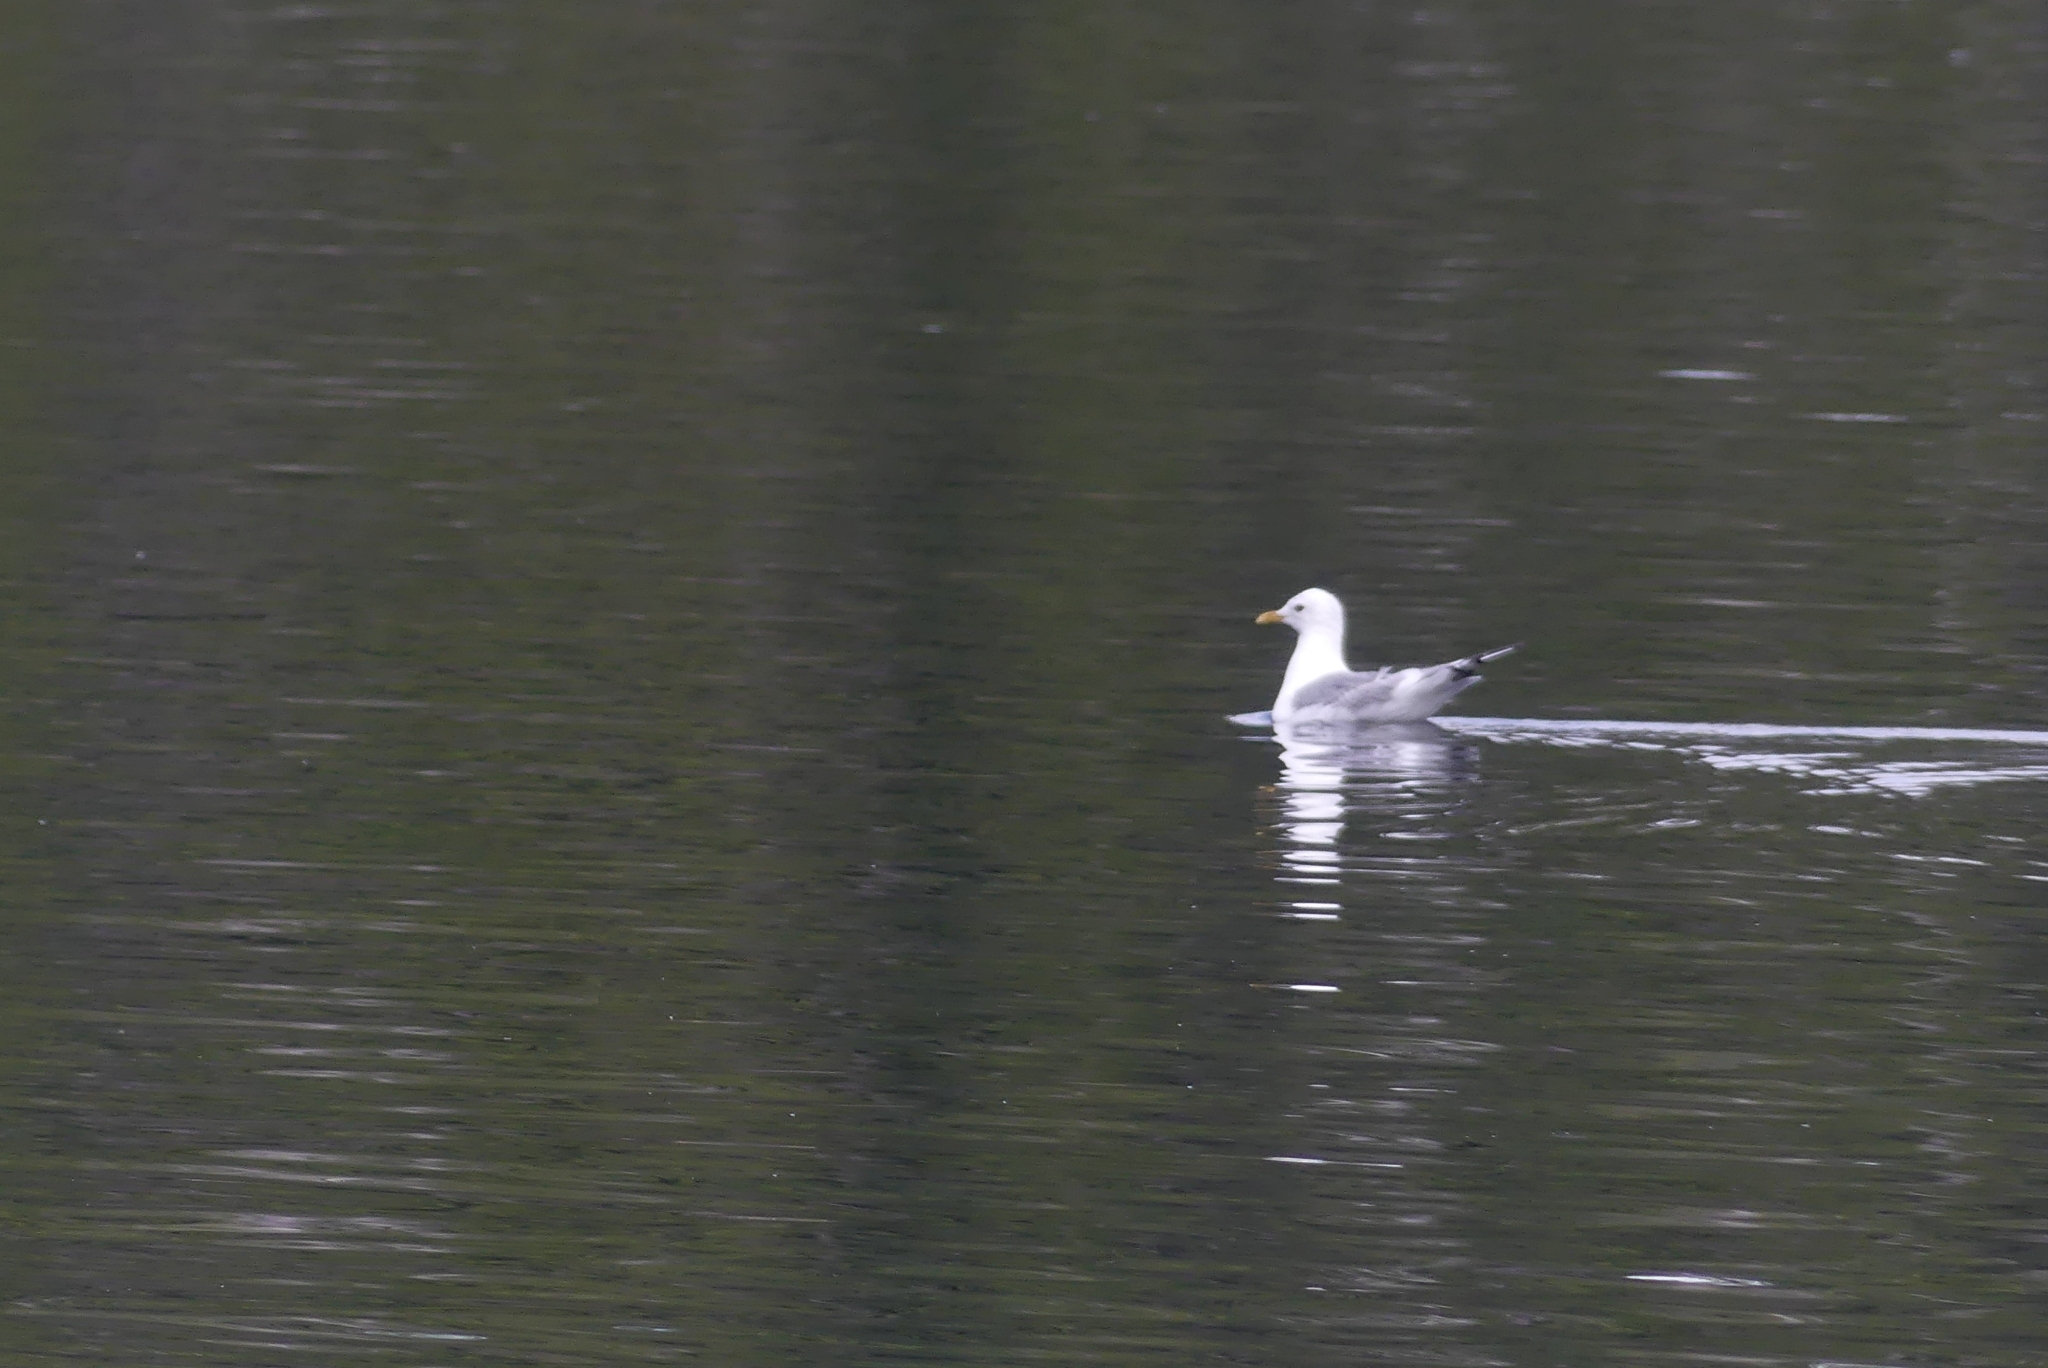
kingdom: Animalia
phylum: Chordata
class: Aves
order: Charadriiformes
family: Laridae
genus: Larus
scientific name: Larus brachyrhynchus
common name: Short-billed gull
